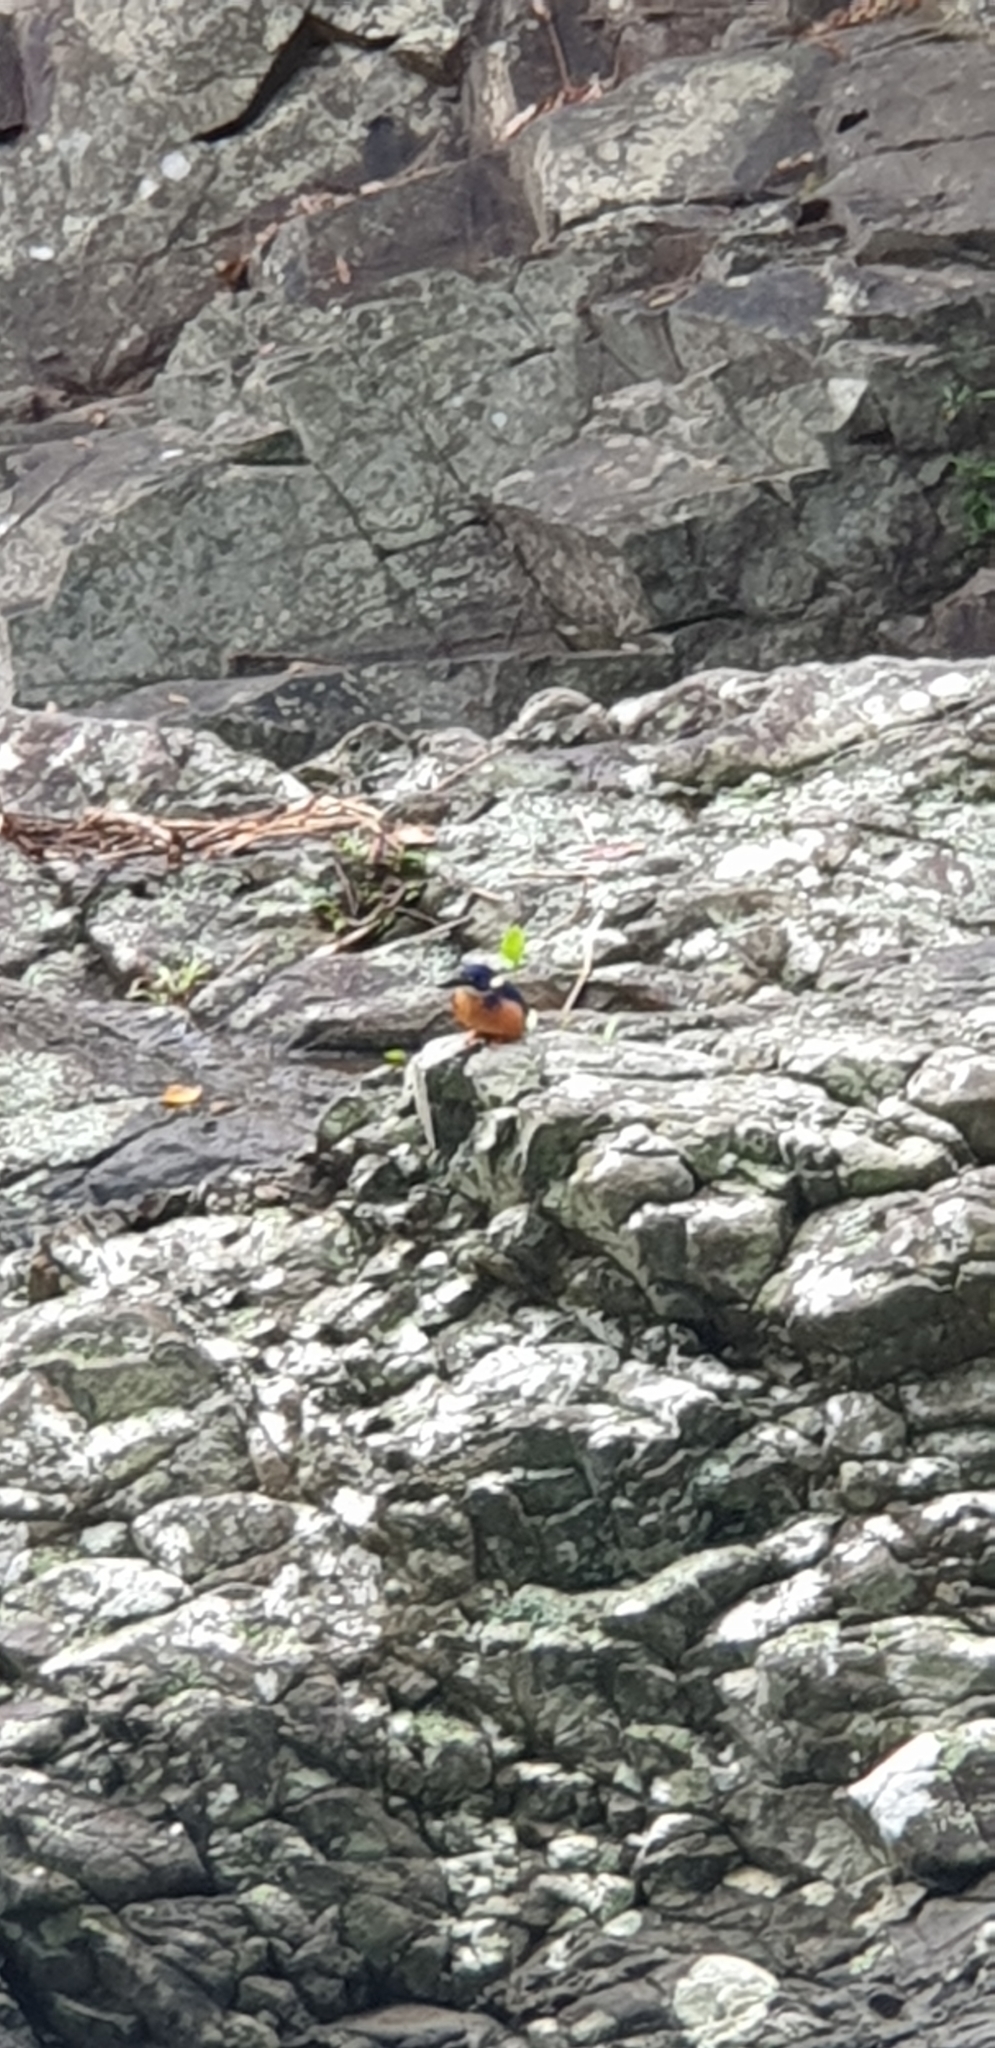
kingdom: Animalia
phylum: Chordata
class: Aves
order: Coraciiformes
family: Alcedinidae
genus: Ceyx
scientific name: Ceyx azureus
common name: Azure kingfisher
